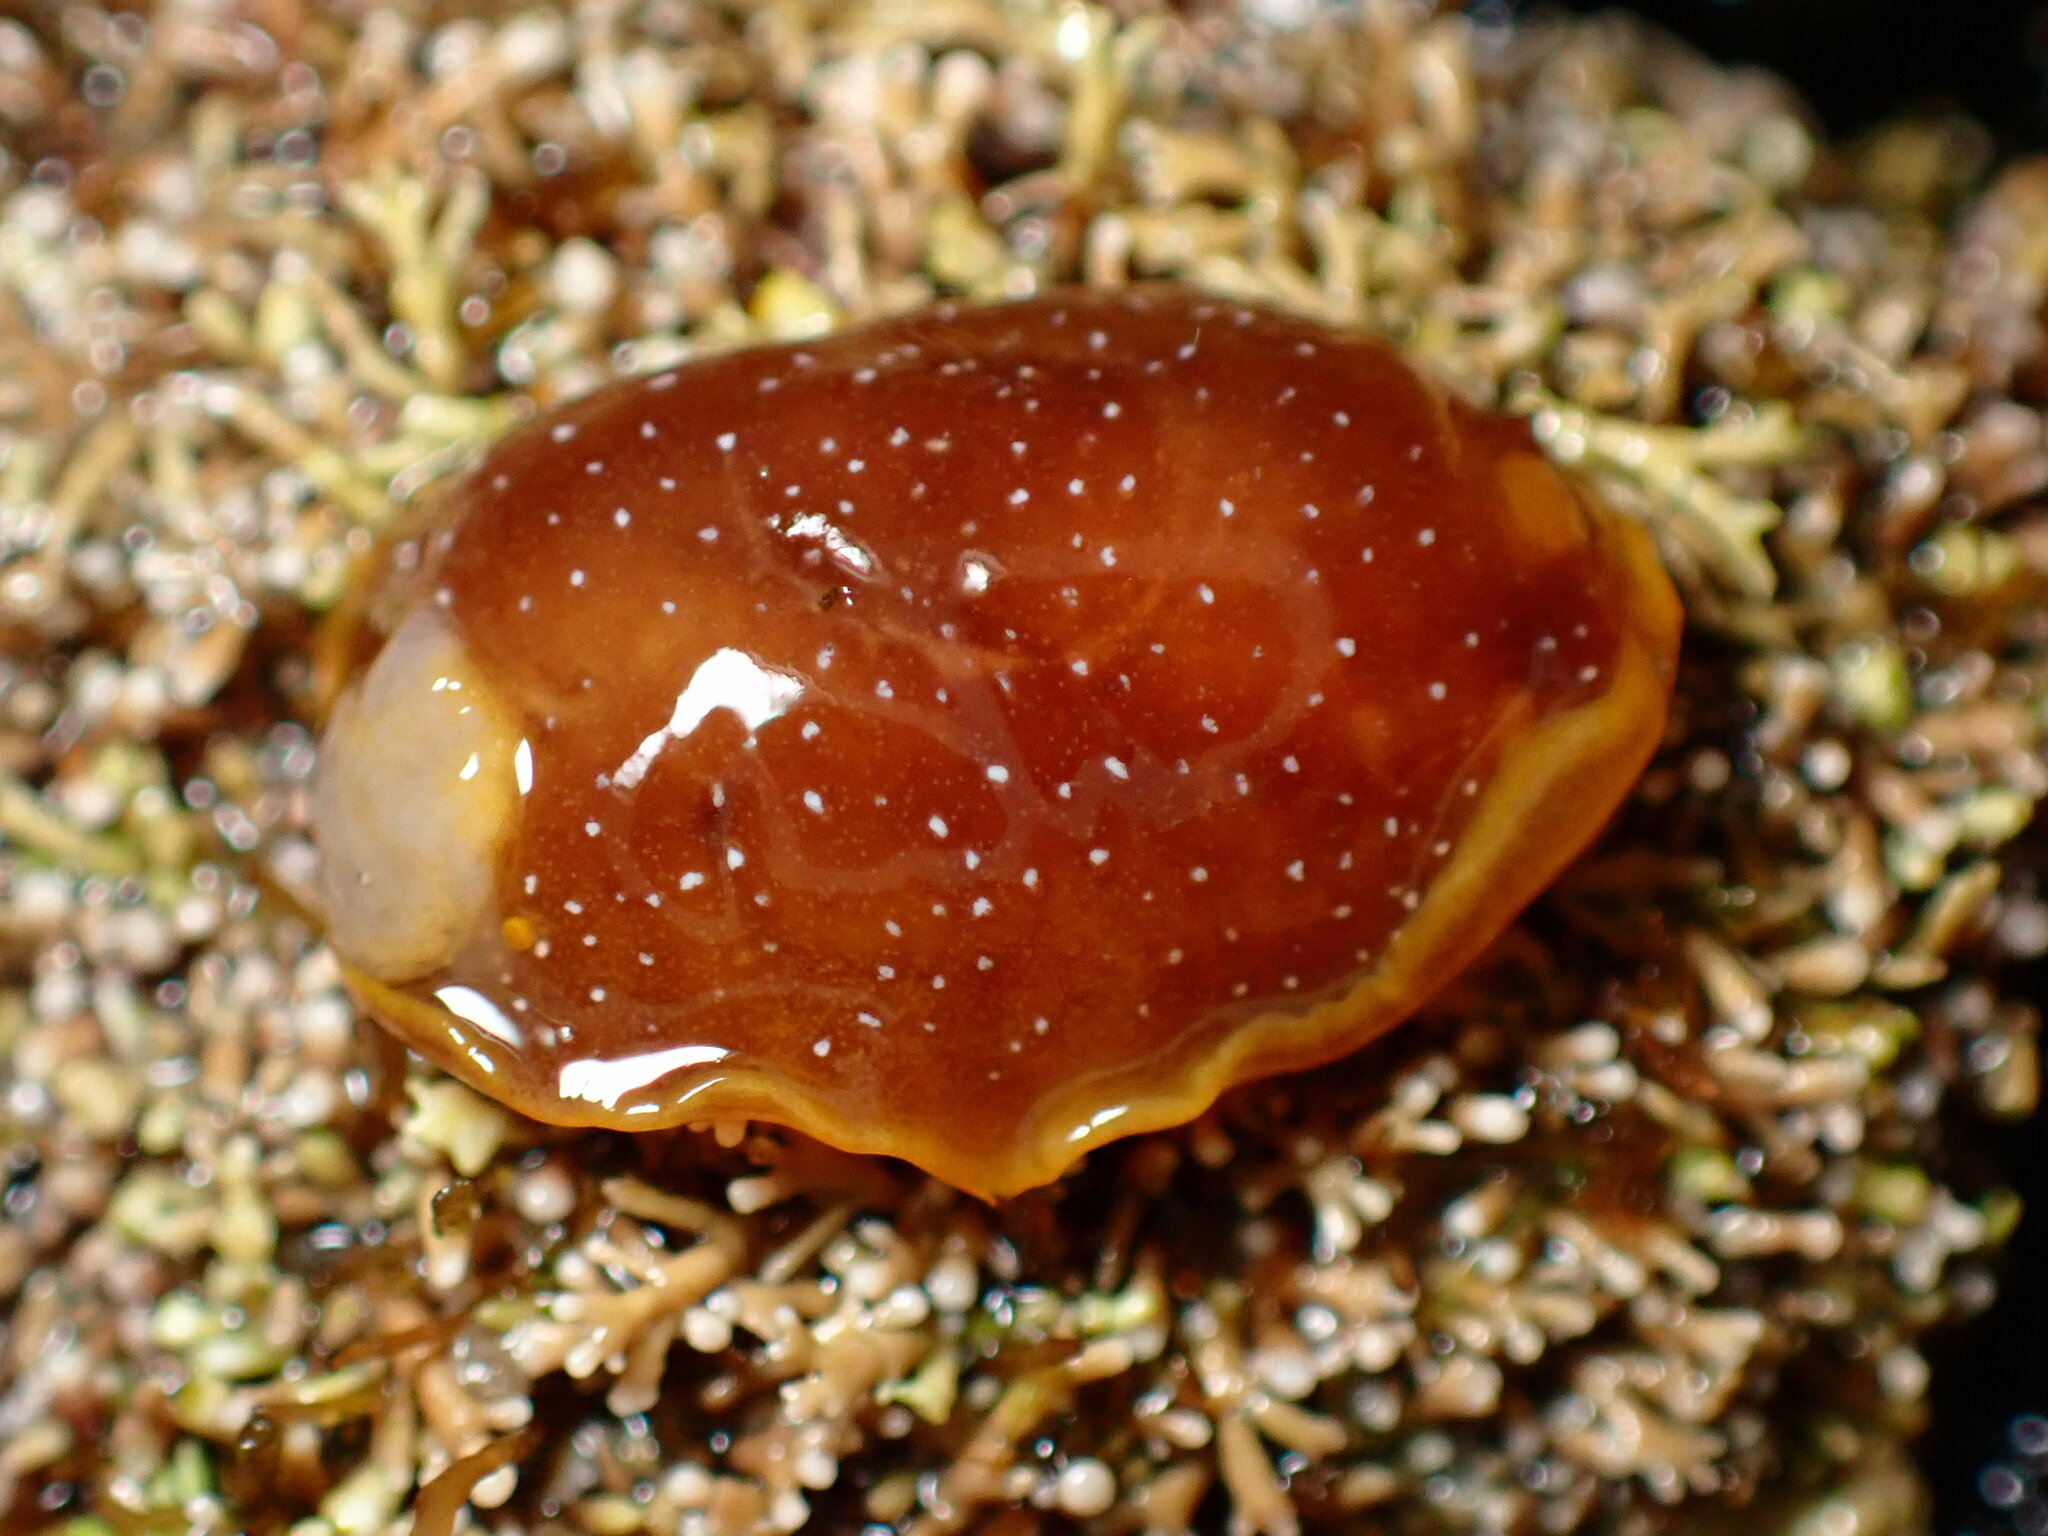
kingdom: Animalia
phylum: Mollusca
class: Gastropoda
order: Nudibranchia
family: Dendrodorididae
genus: Doriopsilla
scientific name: Doriopsilla fulva
